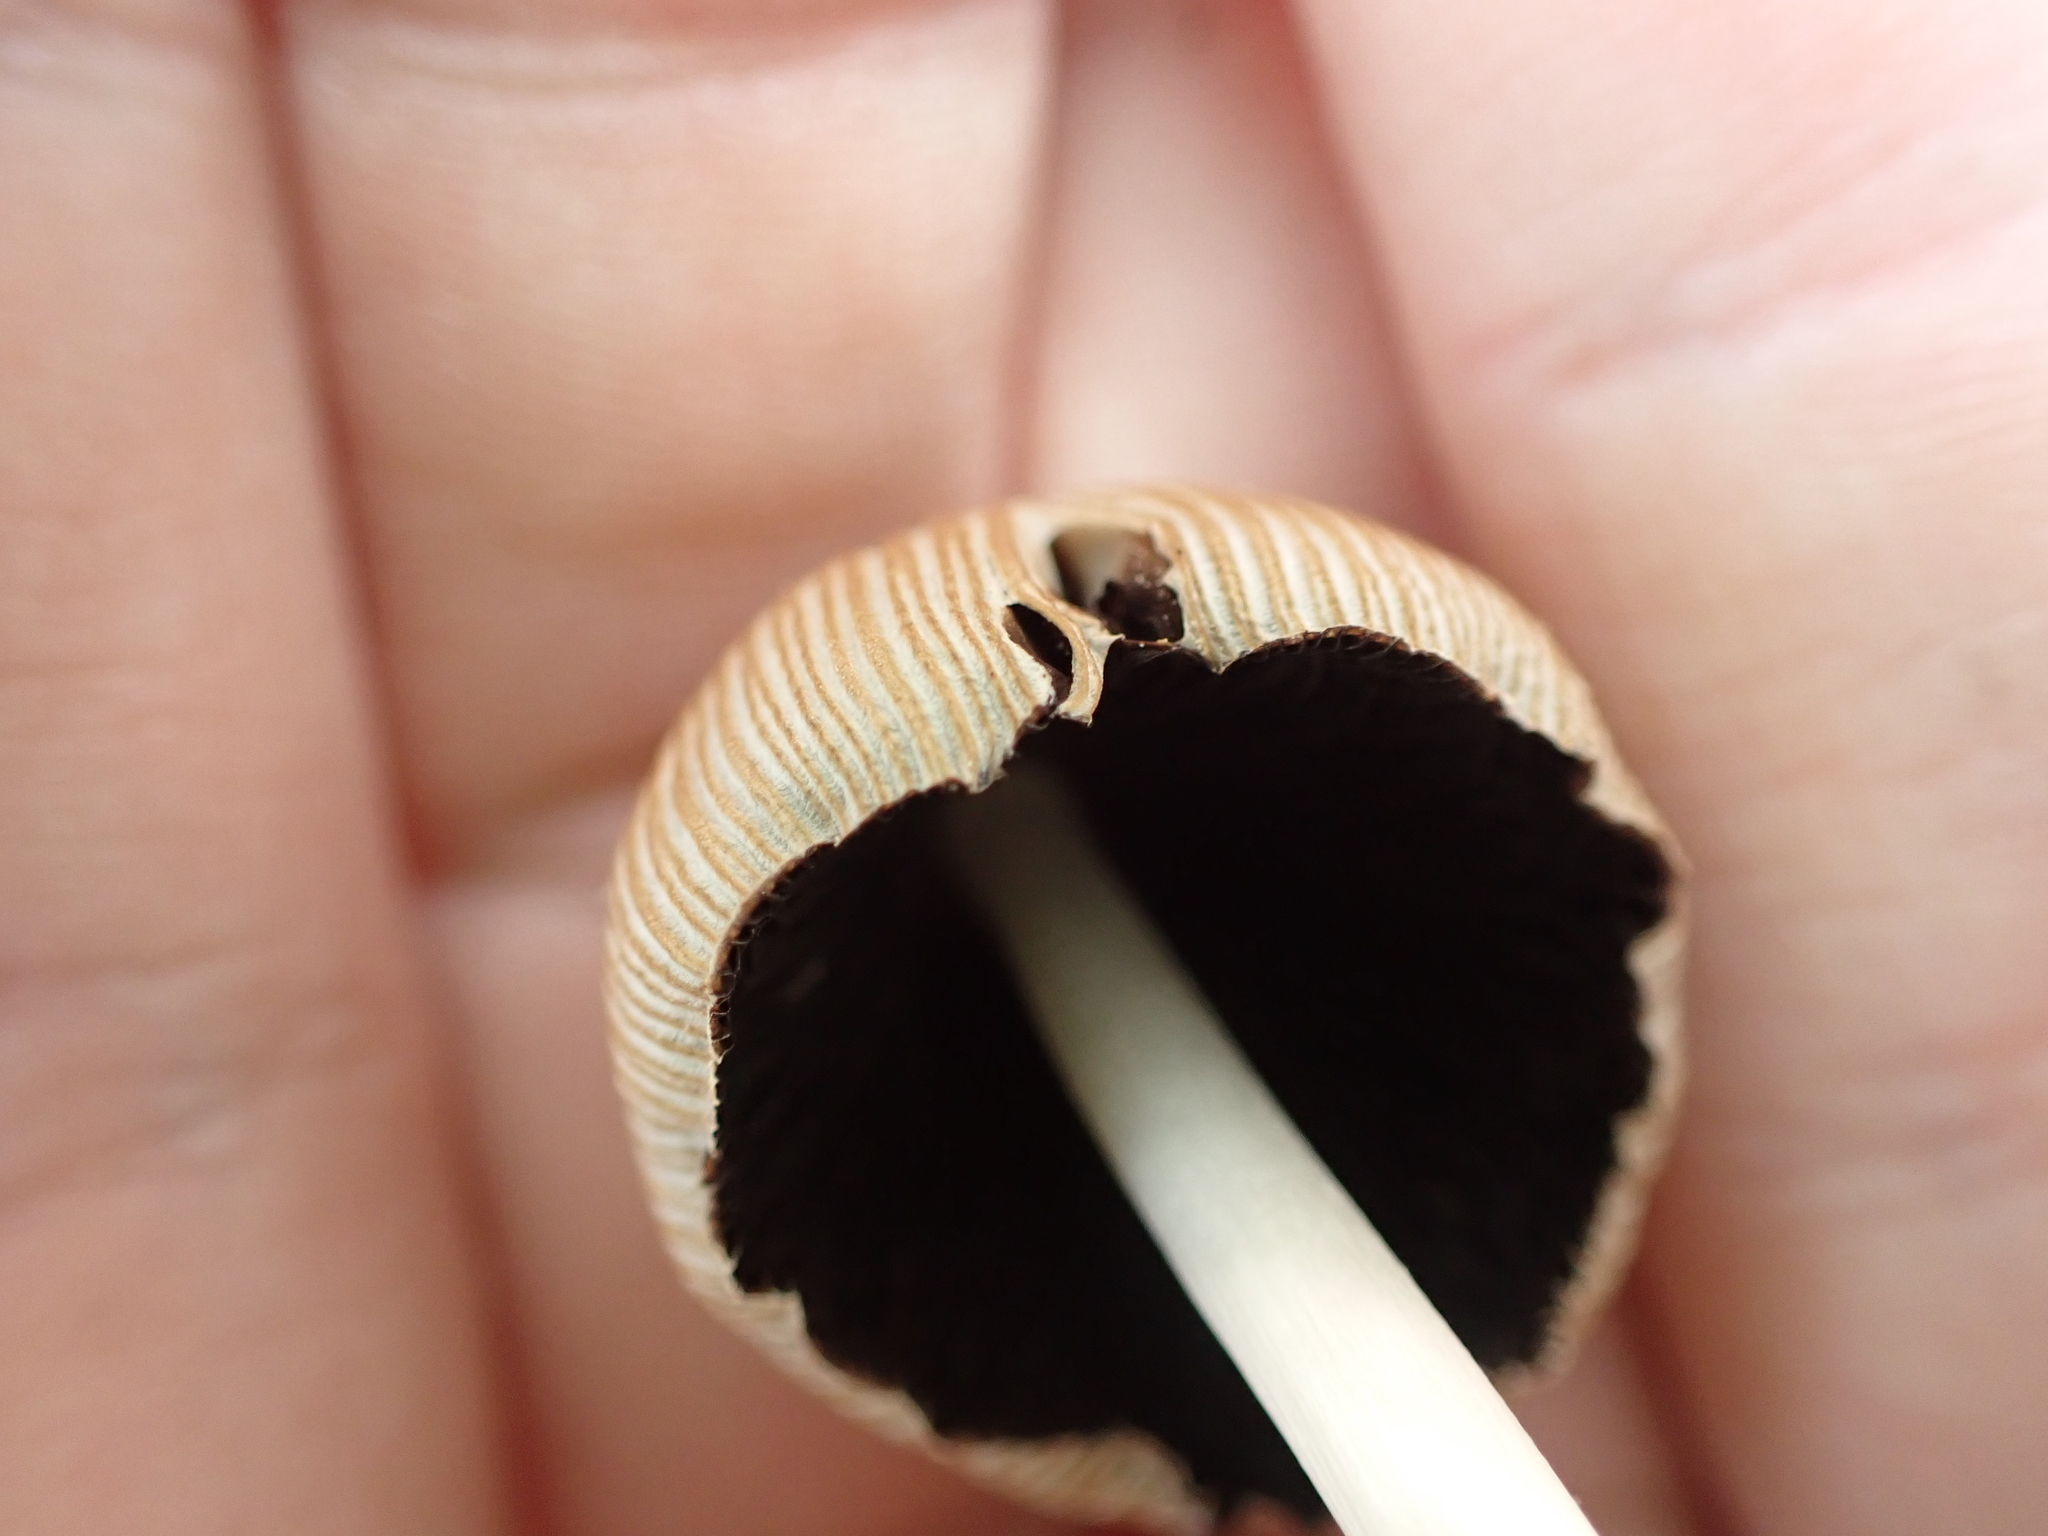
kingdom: Fungi
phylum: Basidiomycota
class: Agaricomycetes
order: Agaricales
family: Psathyrellaceae
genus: Coprinellus
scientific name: Coprinellus micaceus
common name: Glistening ink-cap
